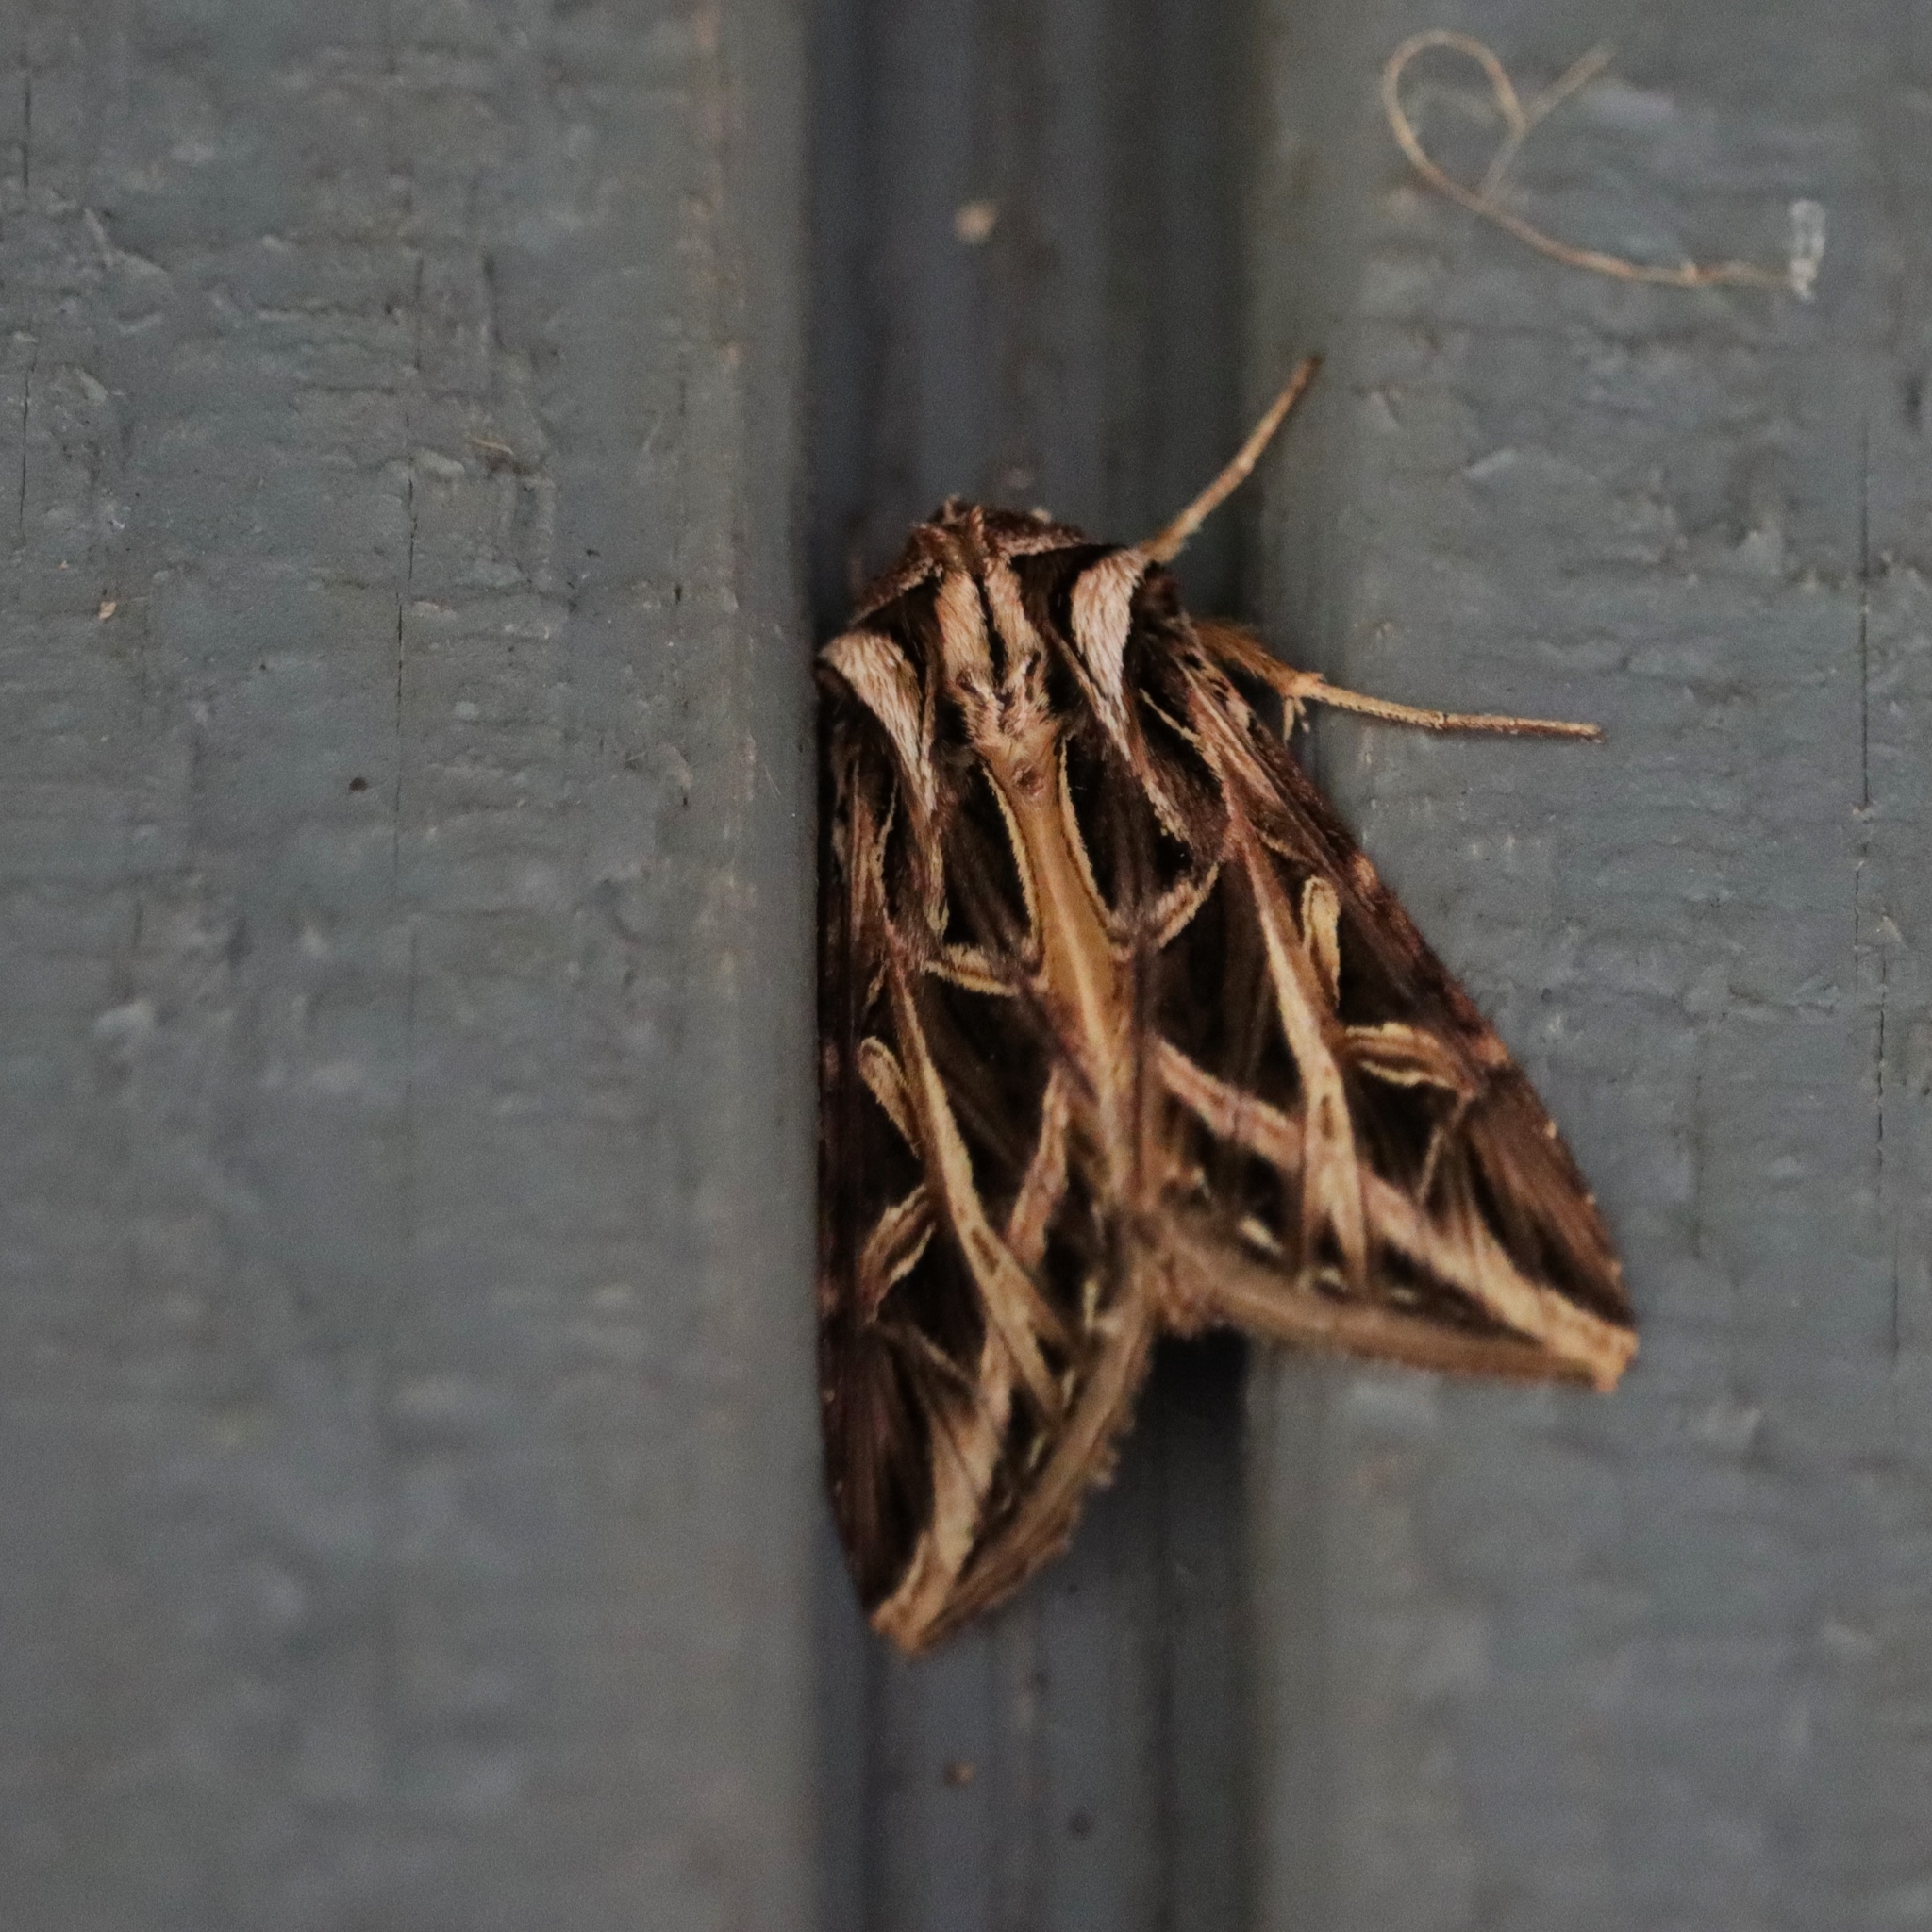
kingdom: Animalia
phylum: Arthropoda
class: Insecta
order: Lepidoptera
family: Noctuidae
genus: Dargida
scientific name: Dargida procinctus
